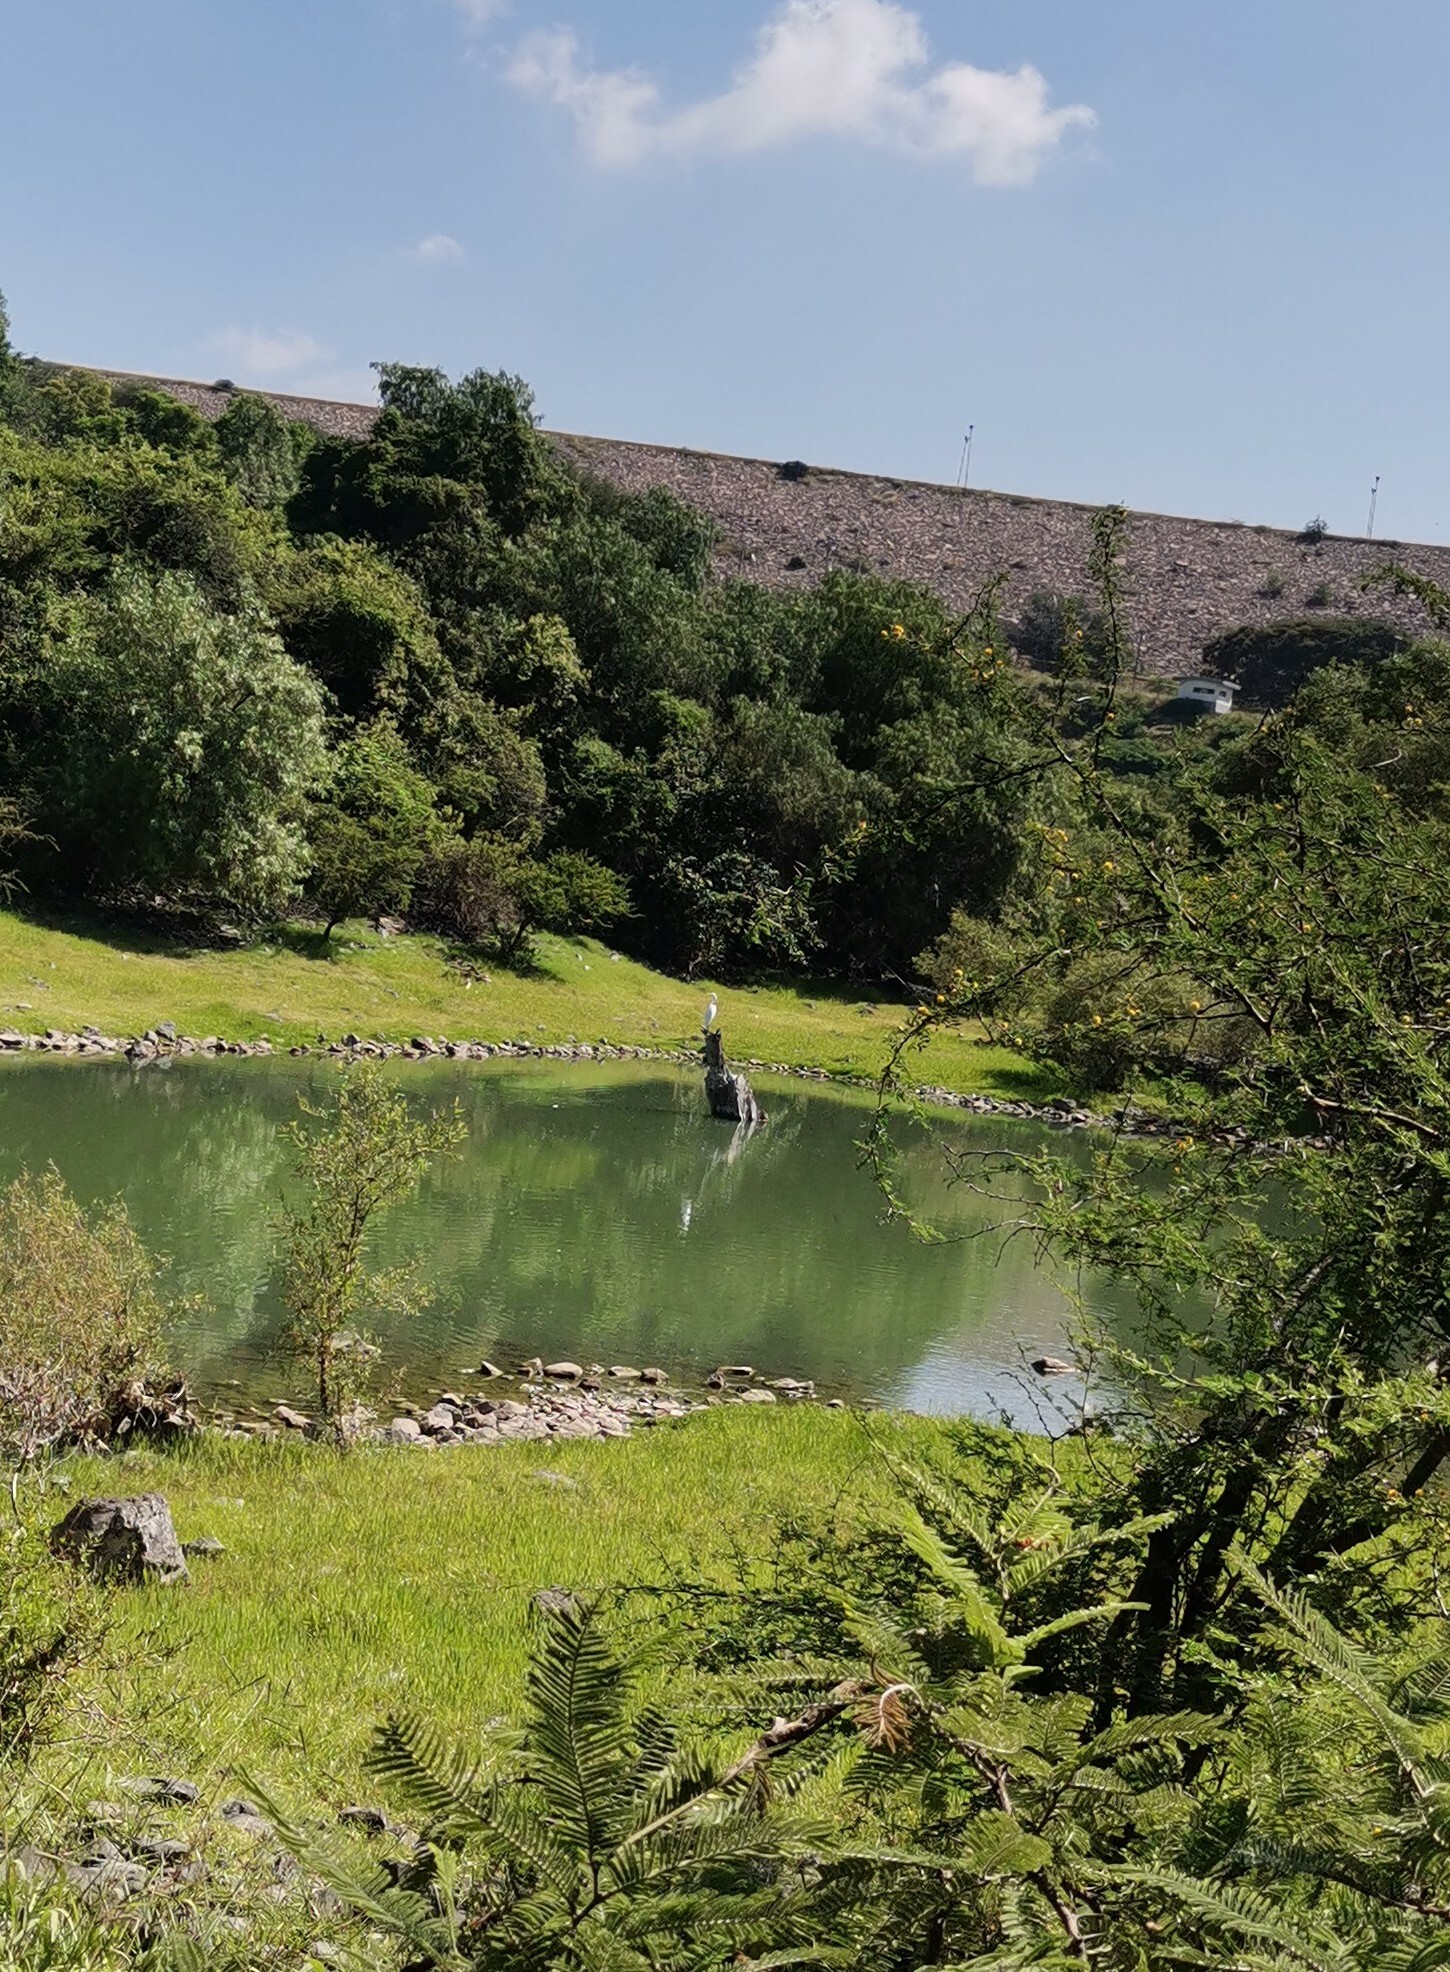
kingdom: Plantae
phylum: Tracheophyta
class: Magnoliopsida
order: Fabales
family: Fabaceae
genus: Vachellia
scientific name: Vachellia pennatula
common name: Fern-leaf acacia
